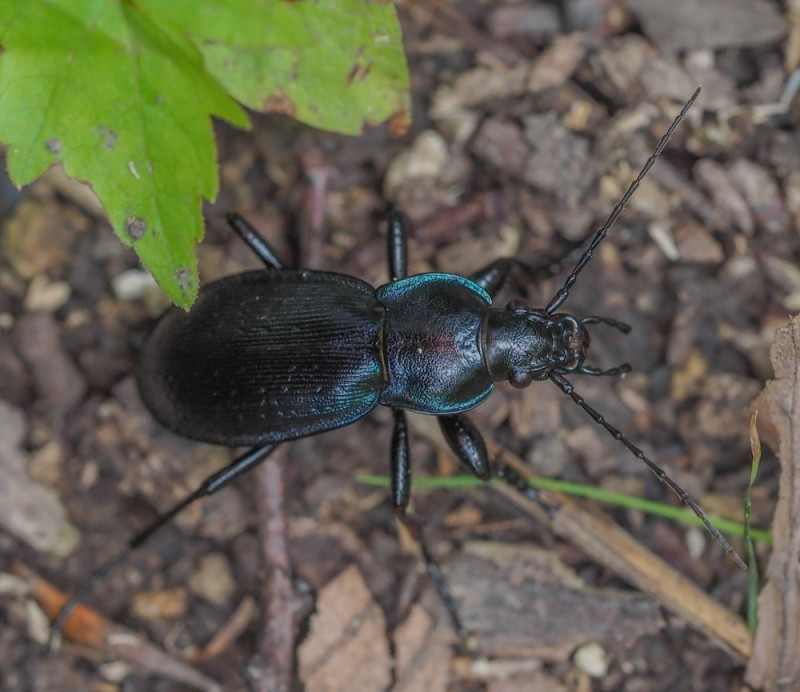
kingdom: Animalia
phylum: Arthropoda
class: Insecta
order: Coleoptera
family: Carabidae
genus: Carabus
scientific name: Carabus scheidleri
